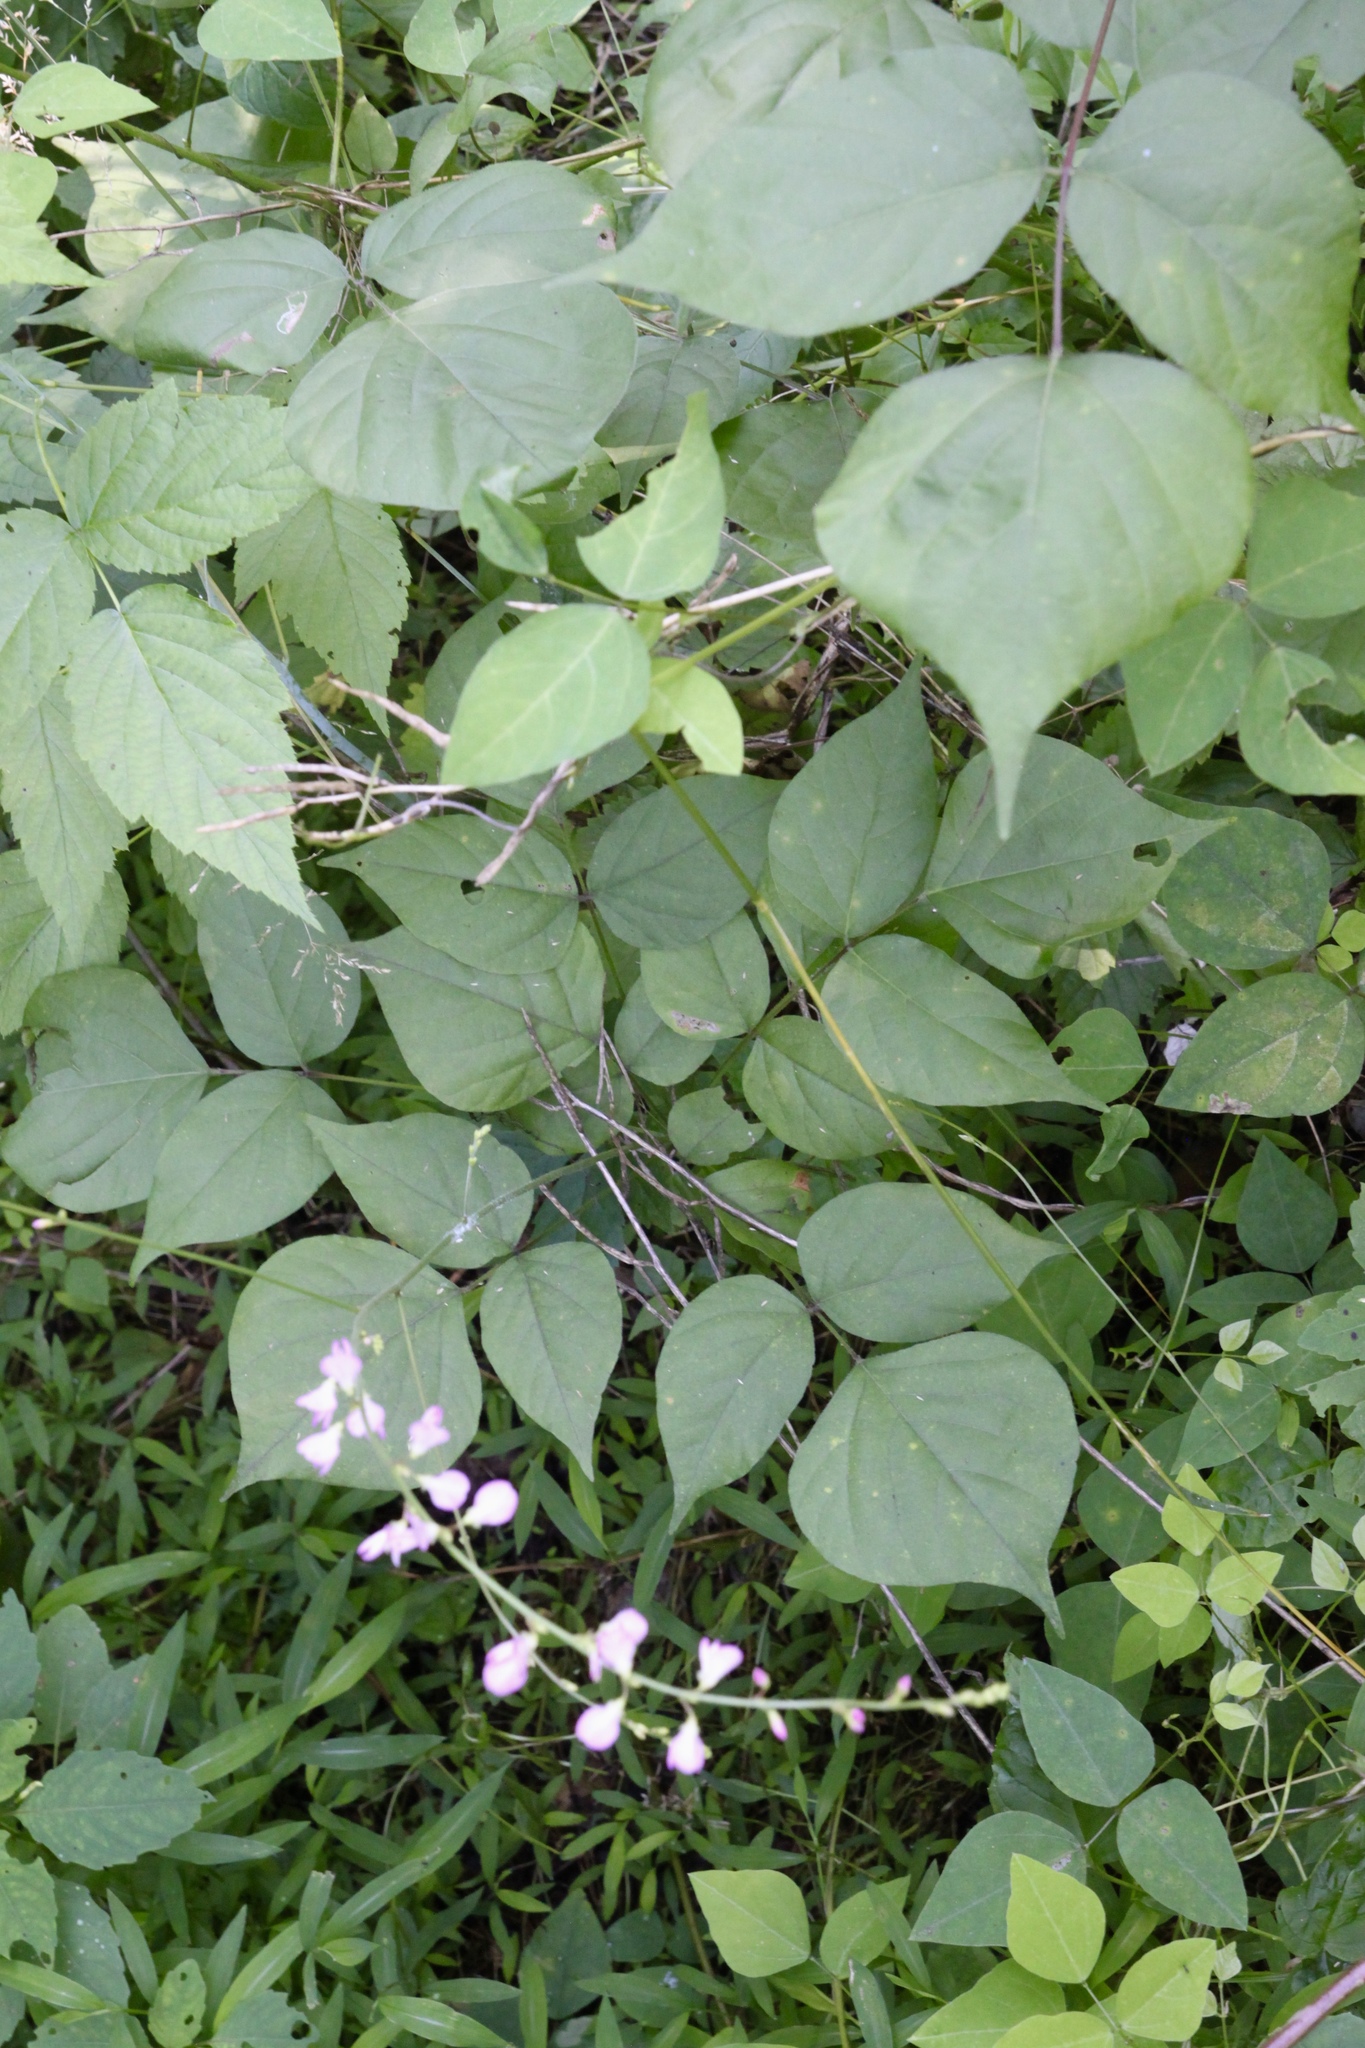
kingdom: Plantae
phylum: Tracheophyta
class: Magnoliopsida
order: Fabales
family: Fabaceae
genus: Hylodesmum
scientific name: Hylodesmum glutinosum
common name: Clustered-leaved tick-trefoil
